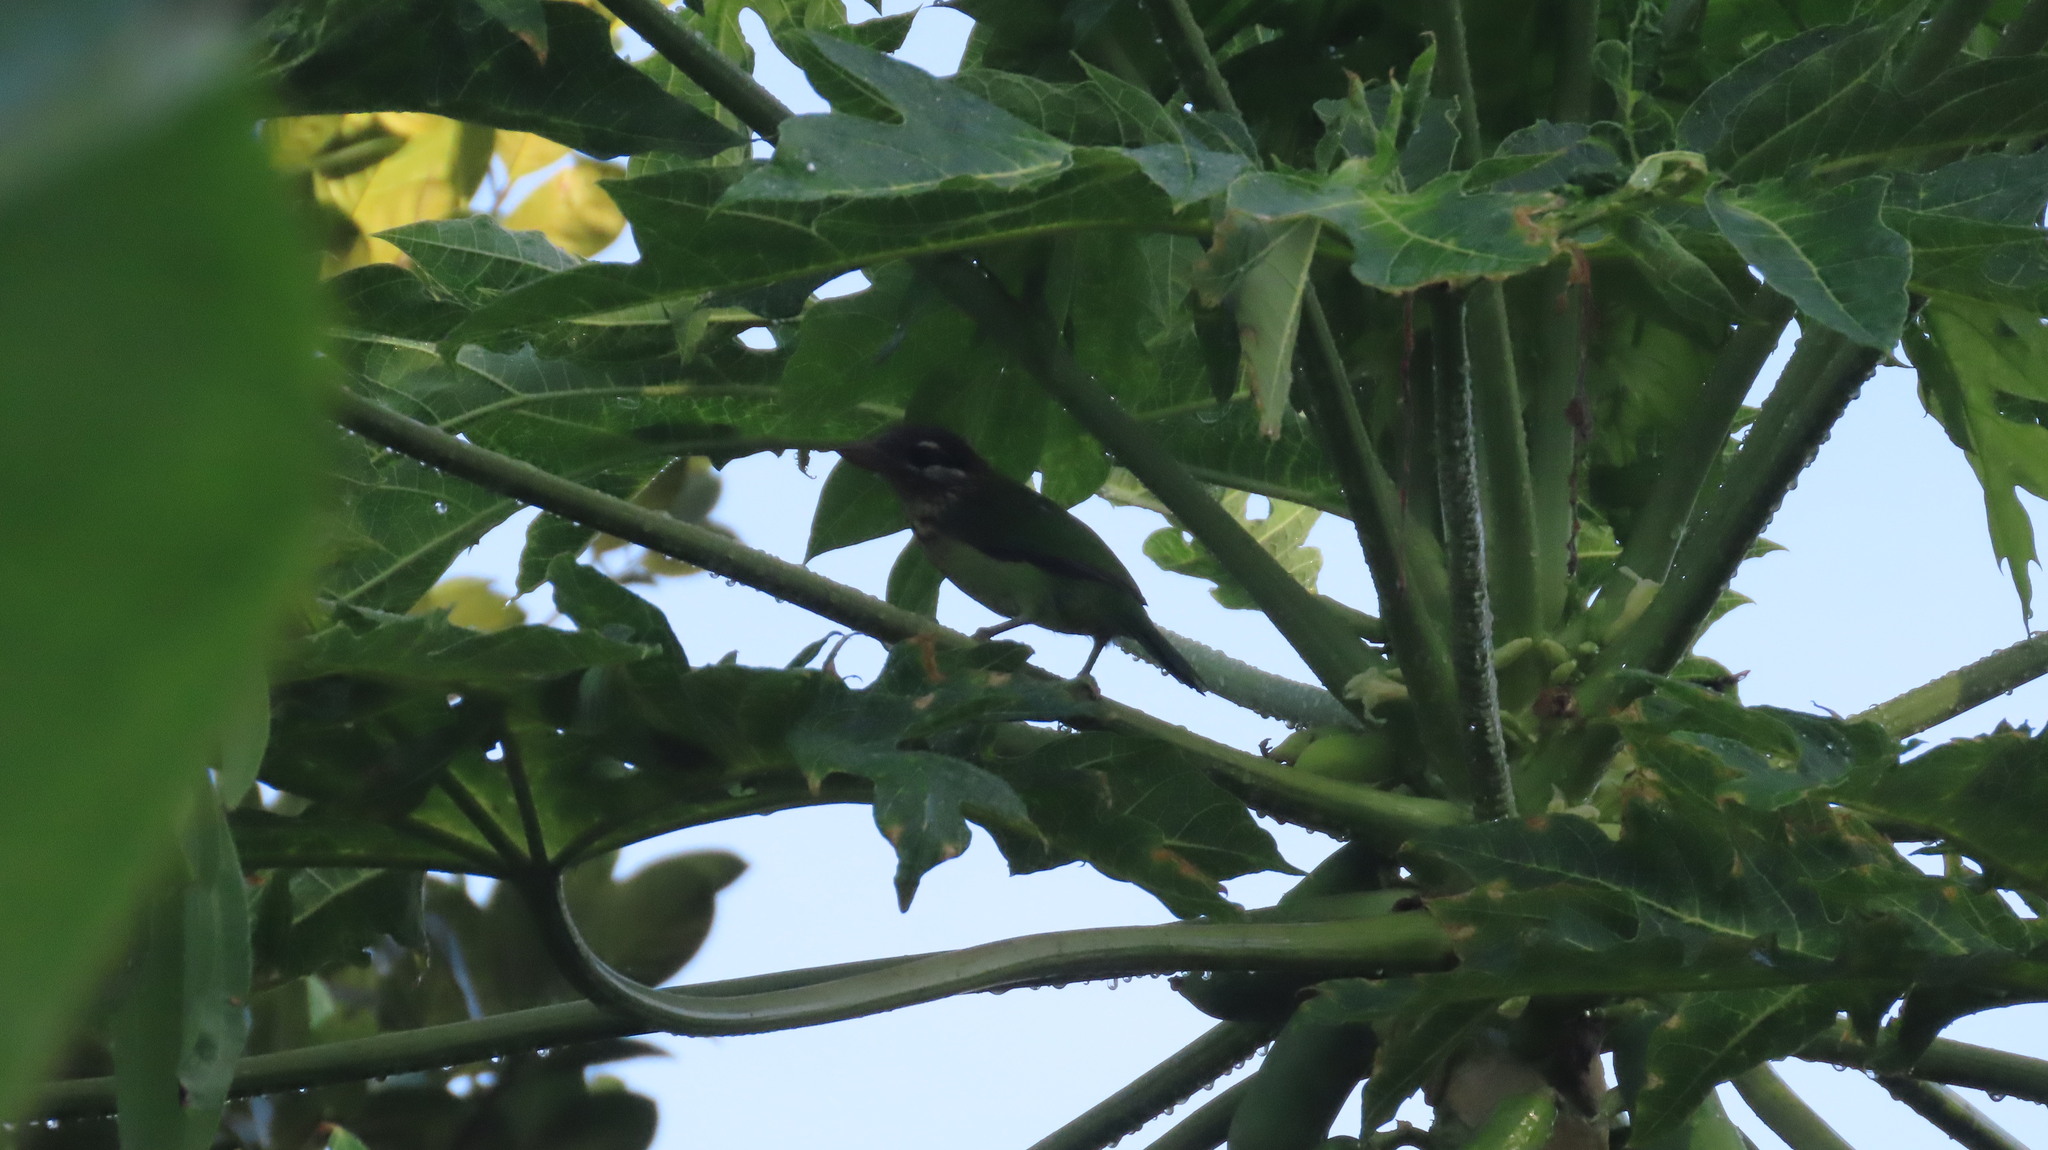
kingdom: Animalia
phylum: Chordata
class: Aves
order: Piciformes
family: Megalaimidae
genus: Psilopogon
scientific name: Psilopogon viridis
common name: White-cheeked barbet
